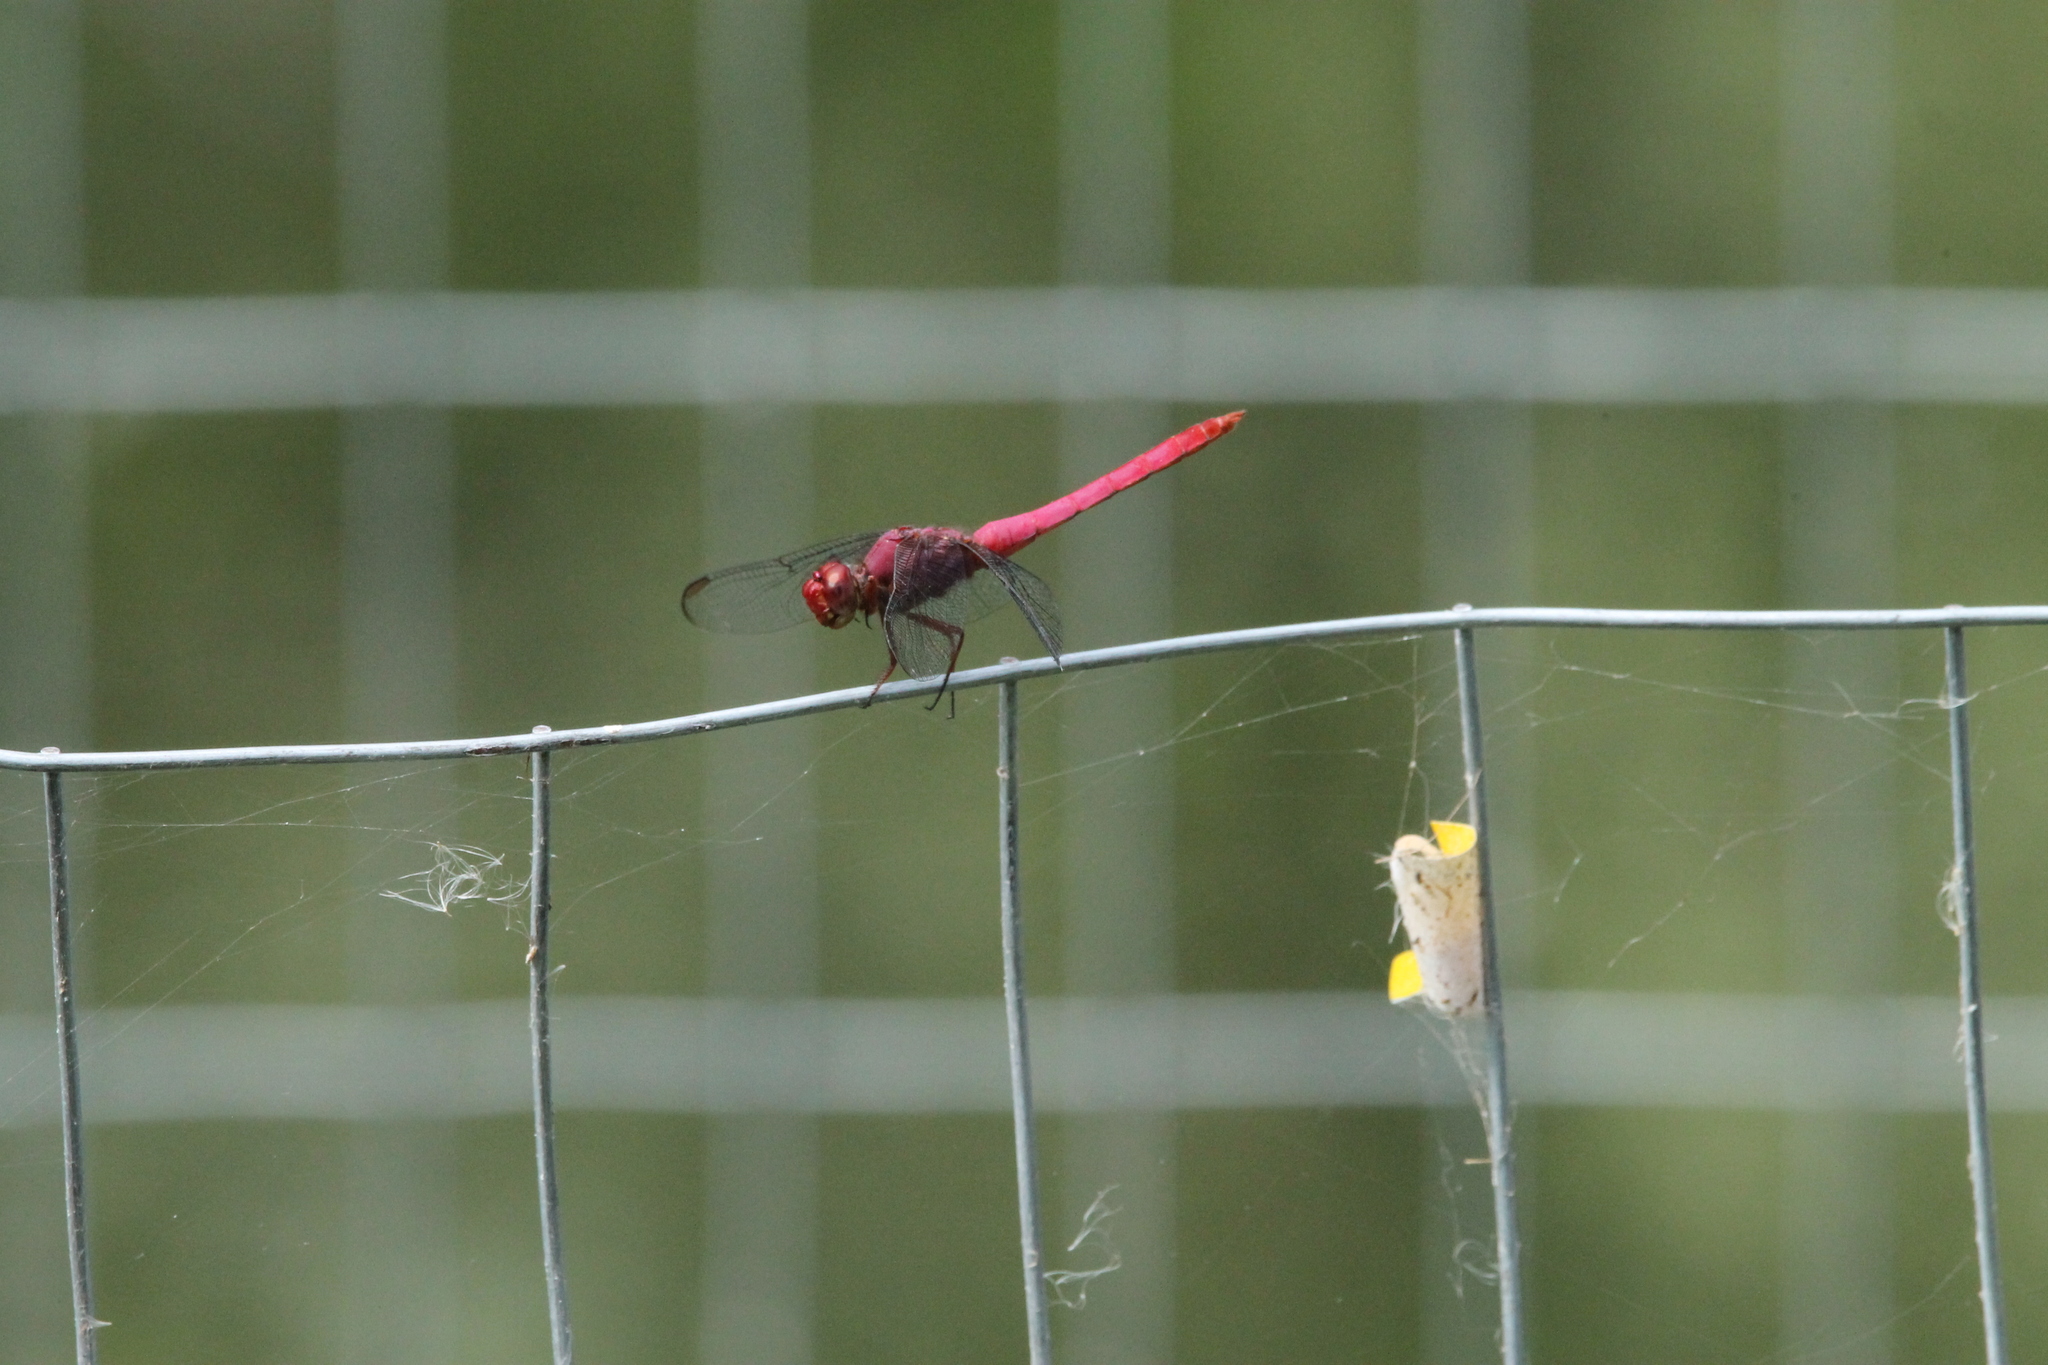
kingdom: Animalia
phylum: Arthropoda
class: Insecta
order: Odonata
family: Libellulidae
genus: Orthemis
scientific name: Orthemis discolor
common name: Carmine skimmer
